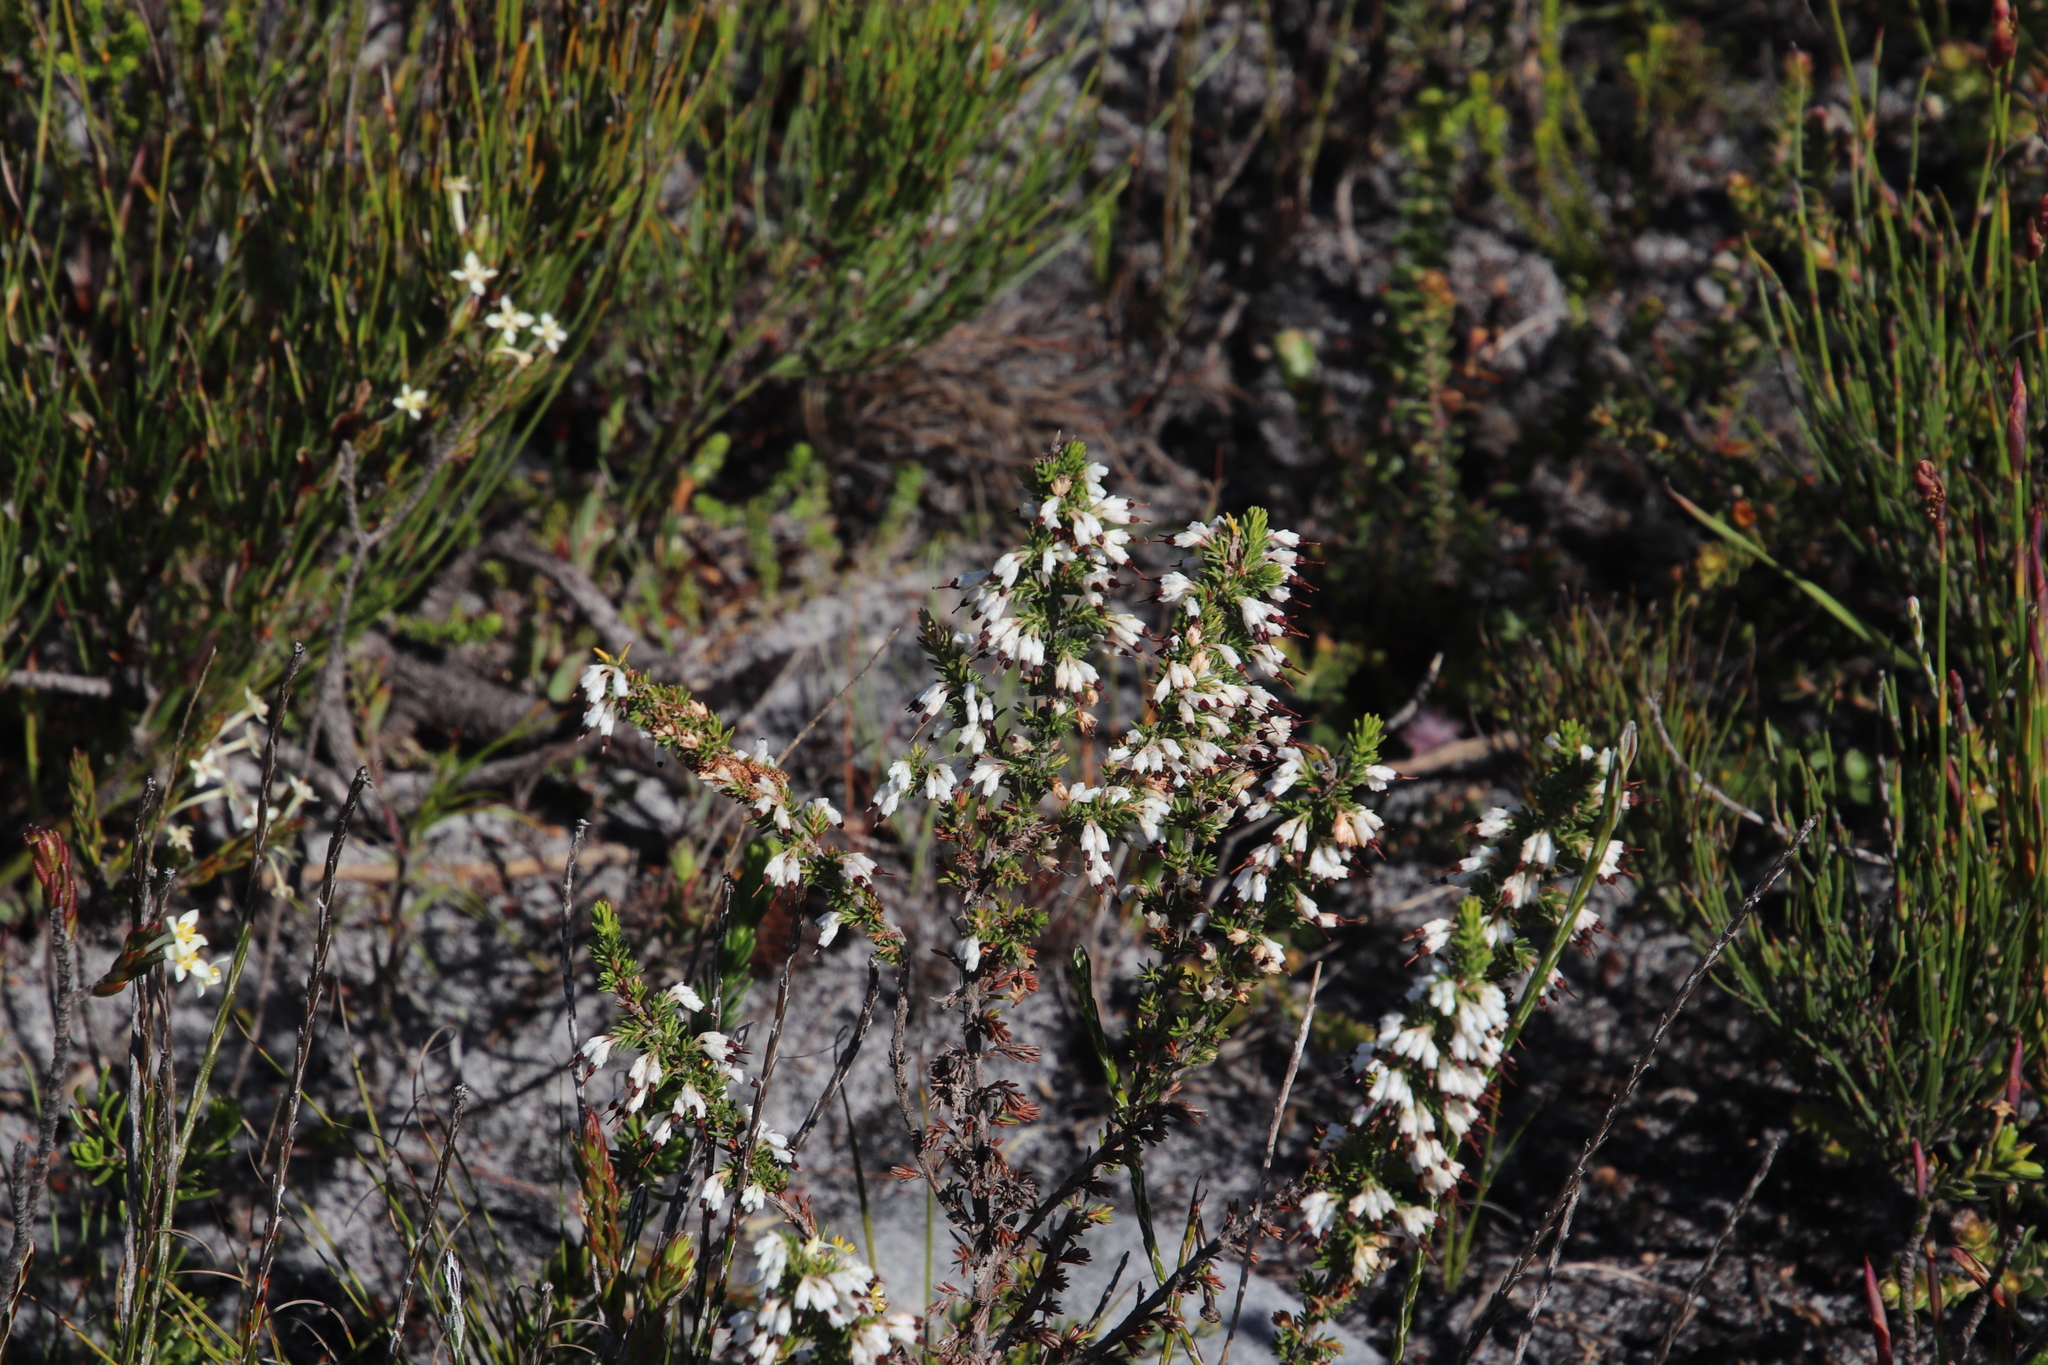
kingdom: Plantae
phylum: Tracheophyta
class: Magnoliopsida
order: Ericales
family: Ericaceae
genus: Erica
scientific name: Erica imbricata
